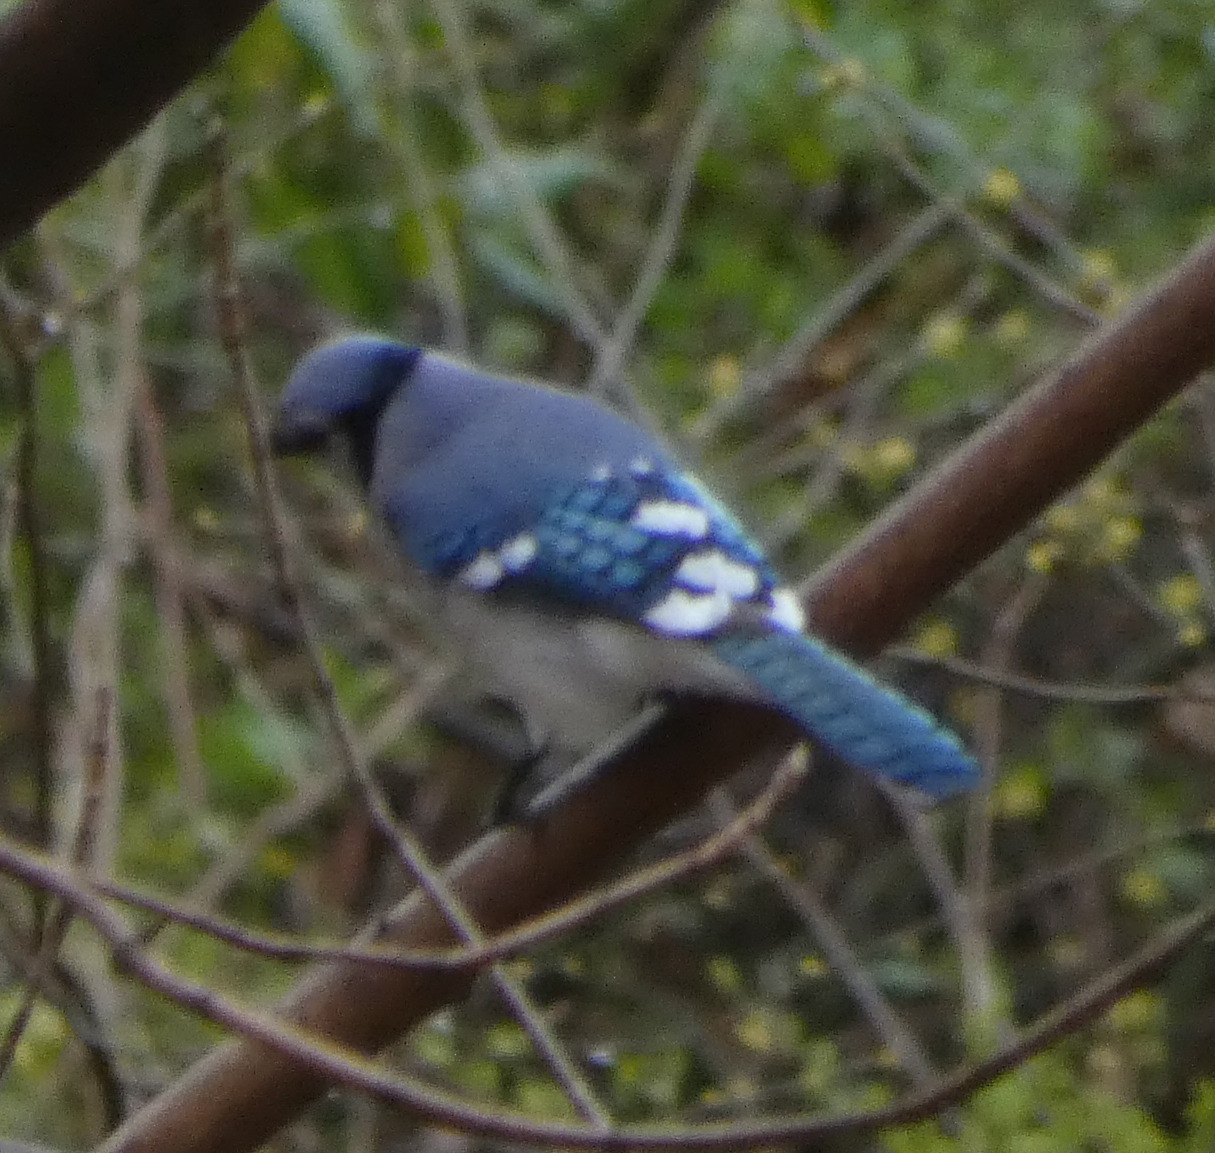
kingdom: Animalia
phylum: Chordata
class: Aves
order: Passeriformes
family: Corvidae
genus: Cyanocitta
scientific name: Cyanocitta cristata
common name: Blue jay
